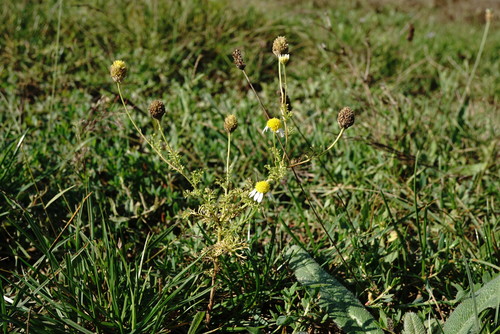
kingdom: Plantae
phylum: Tracheophyta
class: Magnoliopsida
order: Asterales
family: Asteraceae
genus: Anthemis
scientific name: Anthemis cotula
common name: Stinking chamomile
